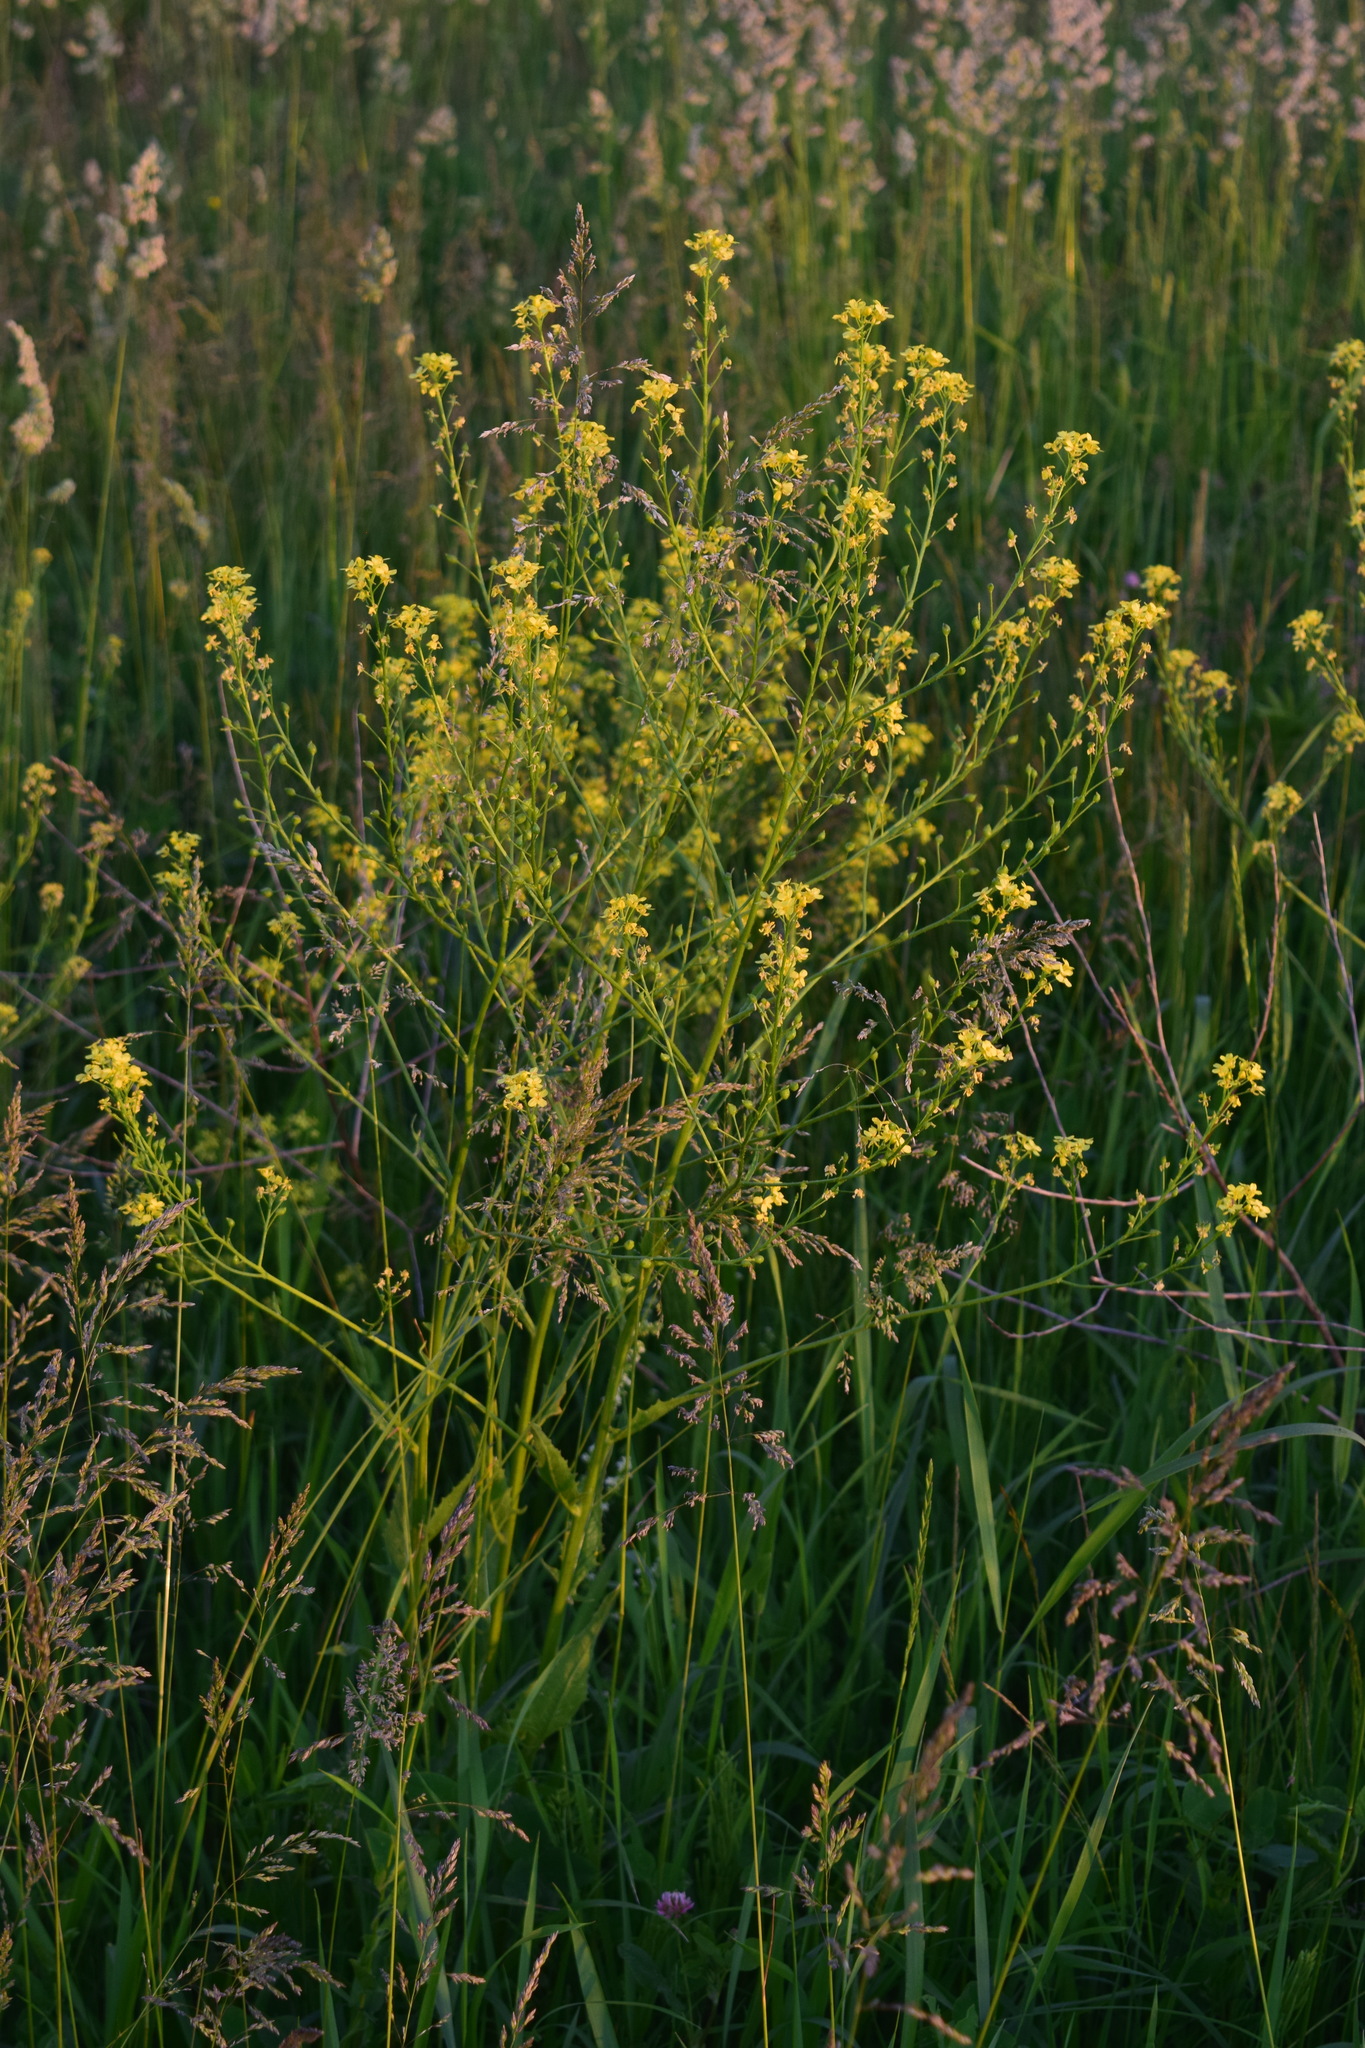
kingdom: Plantae
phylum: Tracheophyta
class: Magnoliopsida
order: Brassicales
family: Brassicaceae
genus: Bunias
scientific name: Bunias orientalis
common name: Warty-cabbage
